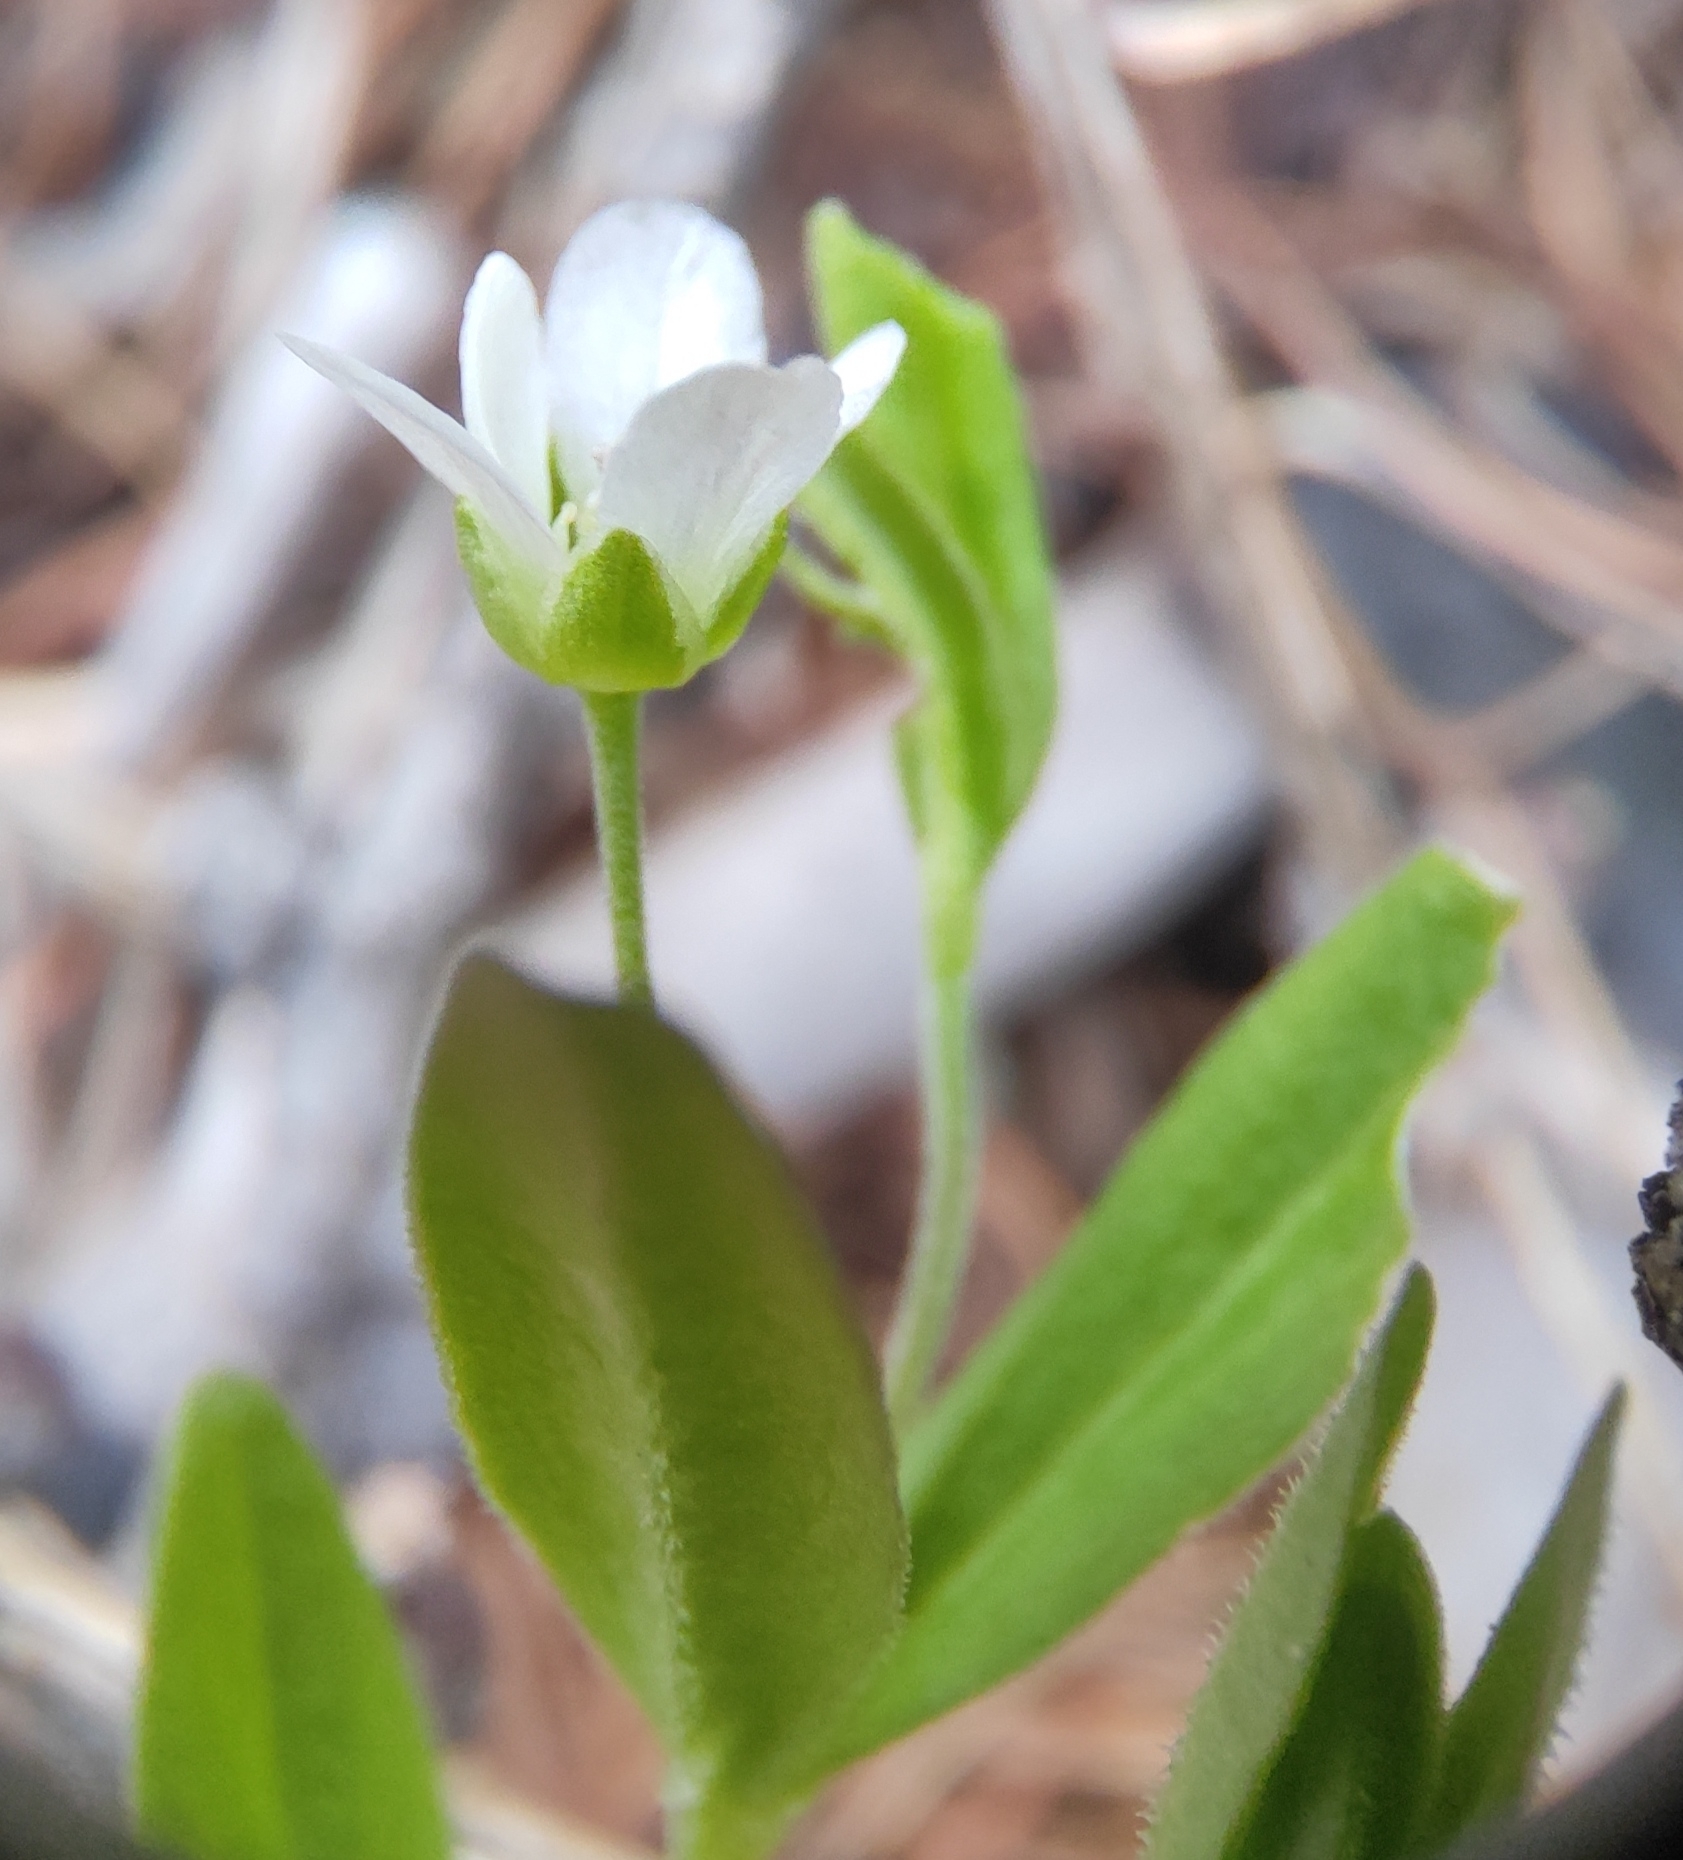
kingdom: Plantae
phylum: Tracheophyta
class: Magnoliopsida
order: Caryophyllales
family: Caryophyllaceae
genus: Moehringia
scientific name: Moehringia lateriflora
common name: Blunt-leaved sandwort
